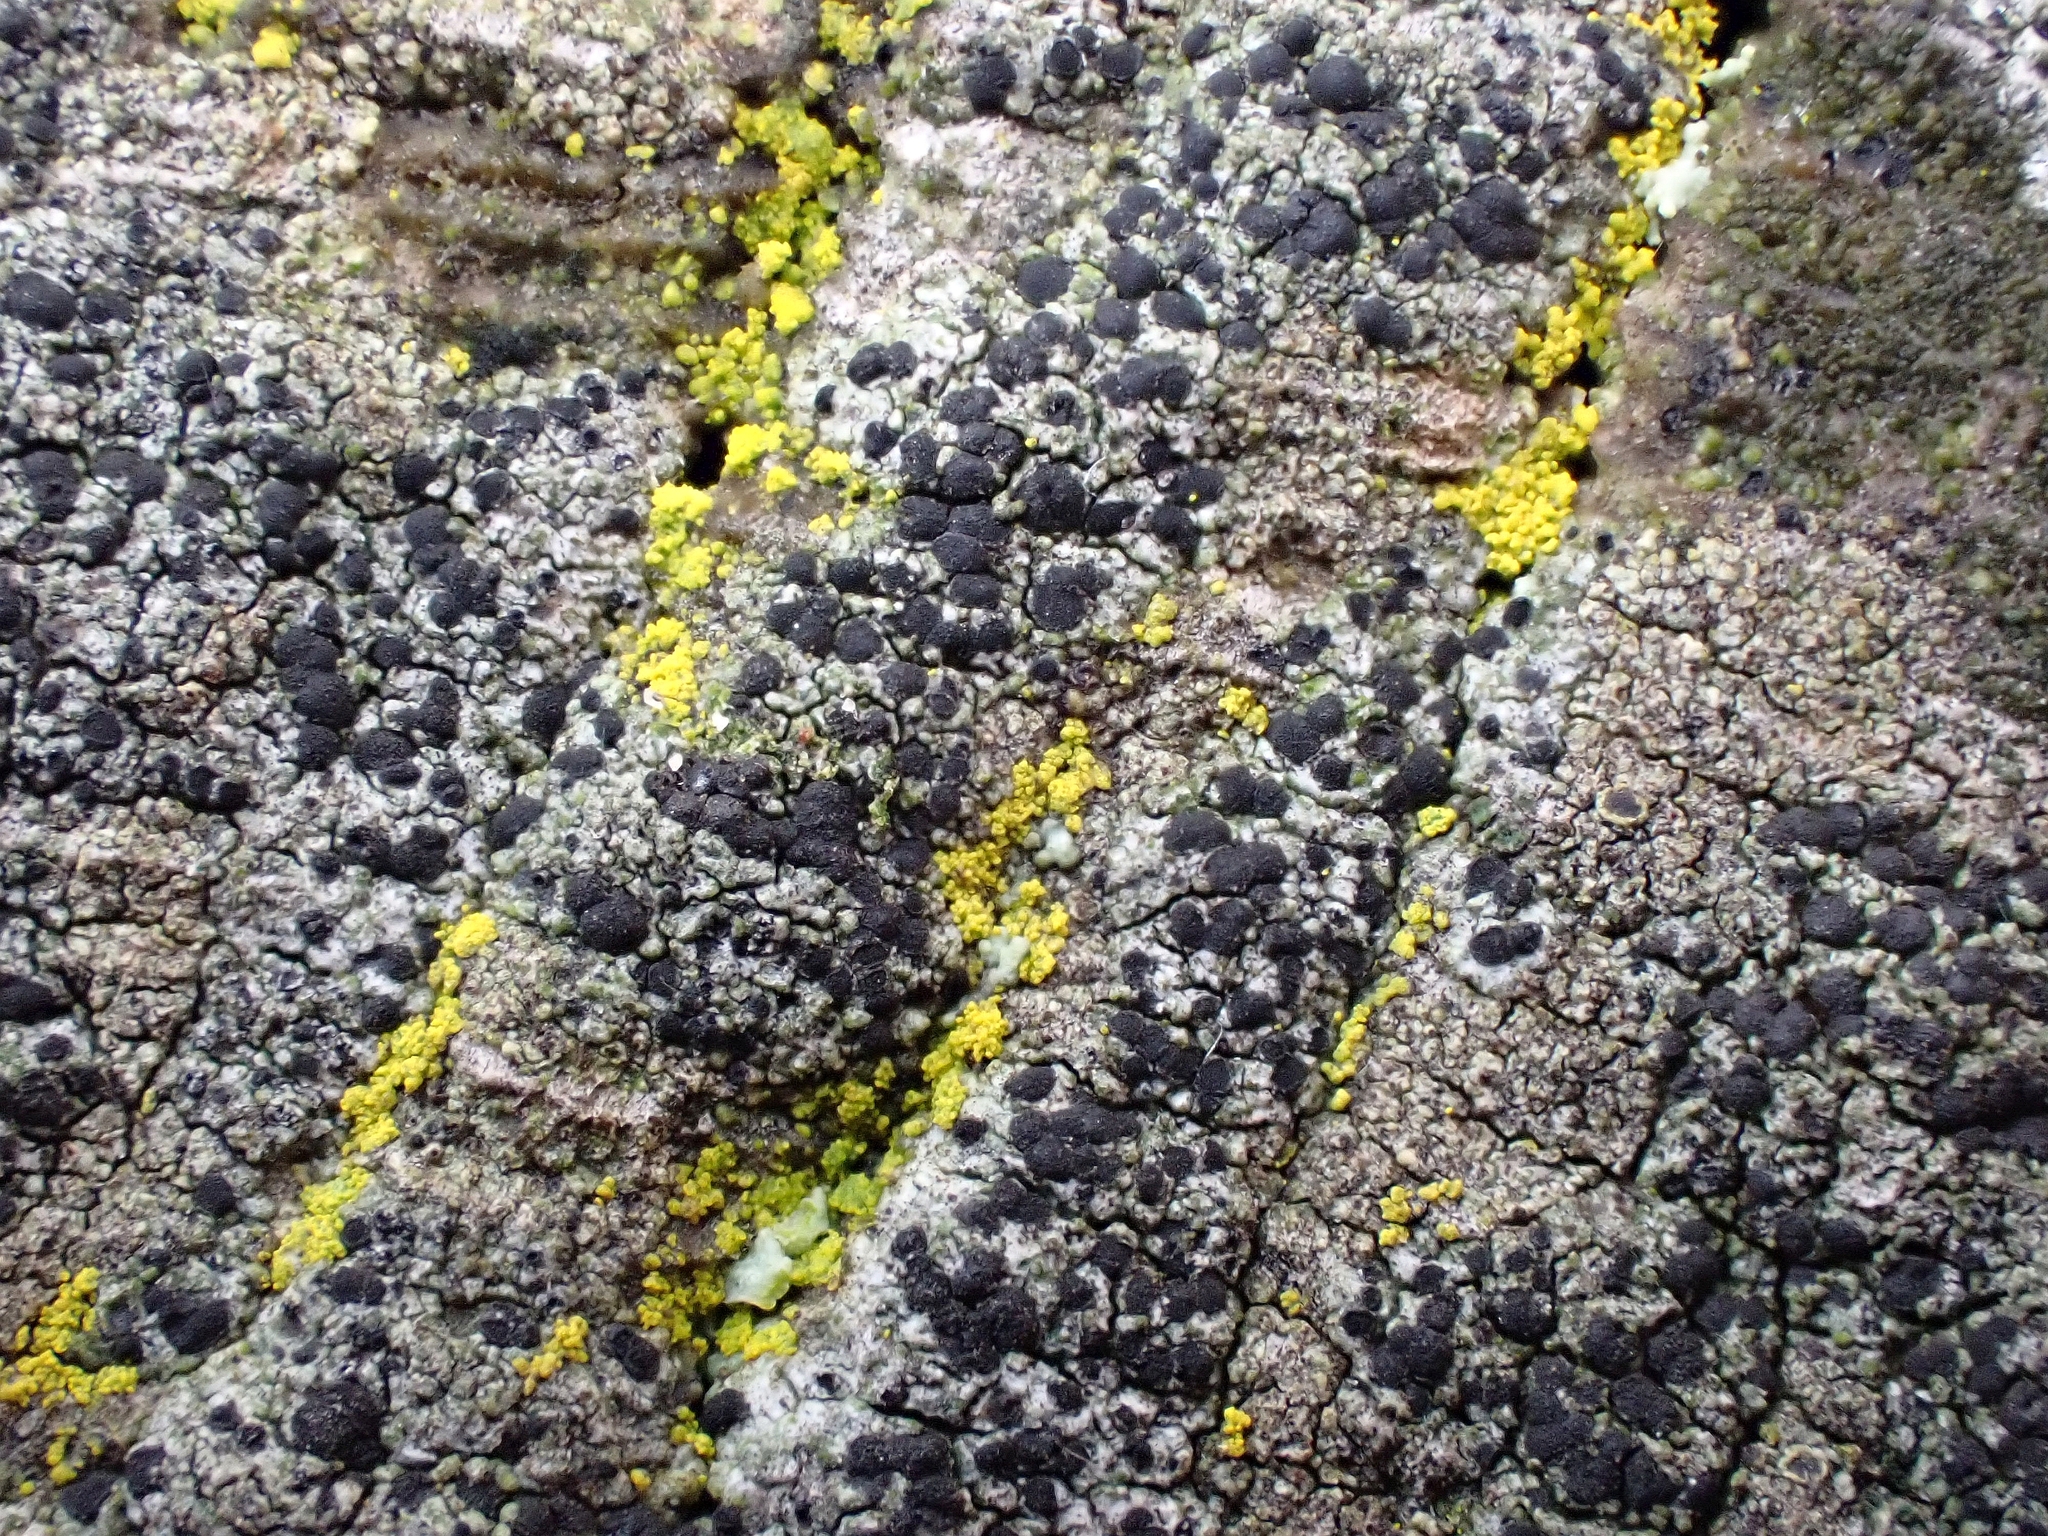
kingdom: Fungi
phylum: Ascomycota
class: Lecanoromycetes
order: Caliciales
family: Caliciaceae
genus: Amandinea
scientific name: Amandinea punctata
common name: Tiny button lichen
